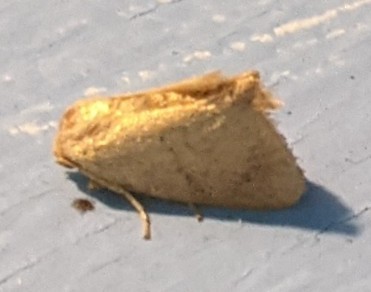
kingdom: Animalia
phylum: Arthropoda
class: Insecta
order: Lepidoptera
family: Limacodidae
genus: Tortricidia
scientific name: Tortricidia pallida
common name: Red-crossed button slug moth
